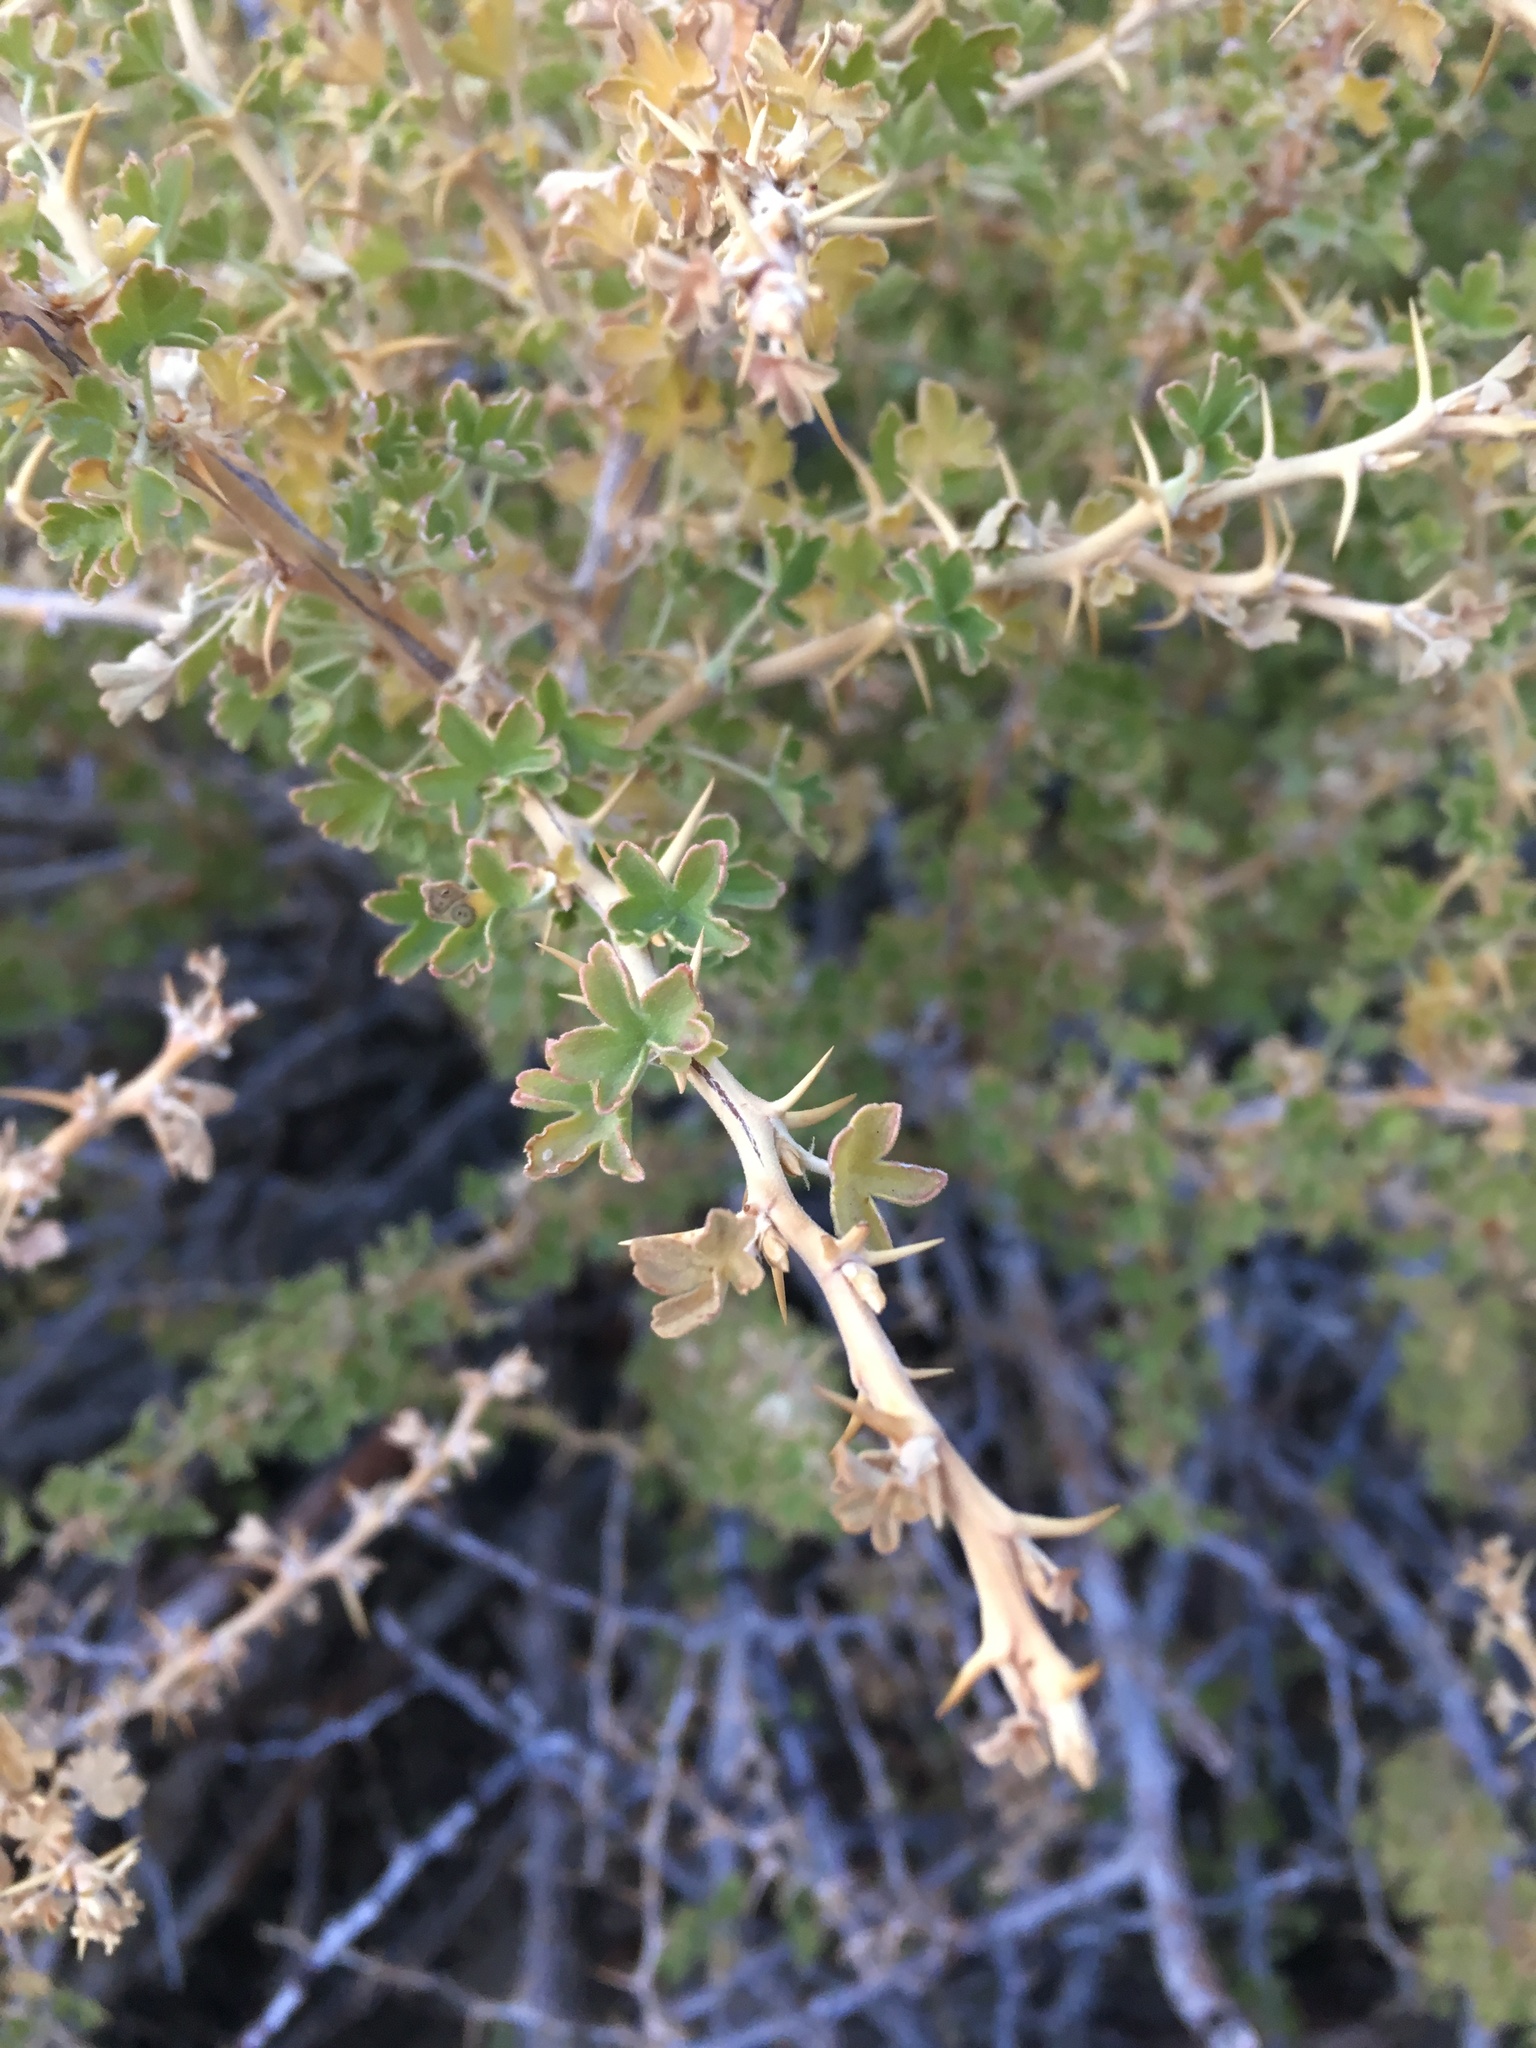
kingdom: Plantae
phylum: Tracheophyta
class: Magnoliopsida
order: Saxifragales
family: Grossulariaceae
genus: Ribes
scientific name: Ribes velutinum
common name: Desert gooseberry
